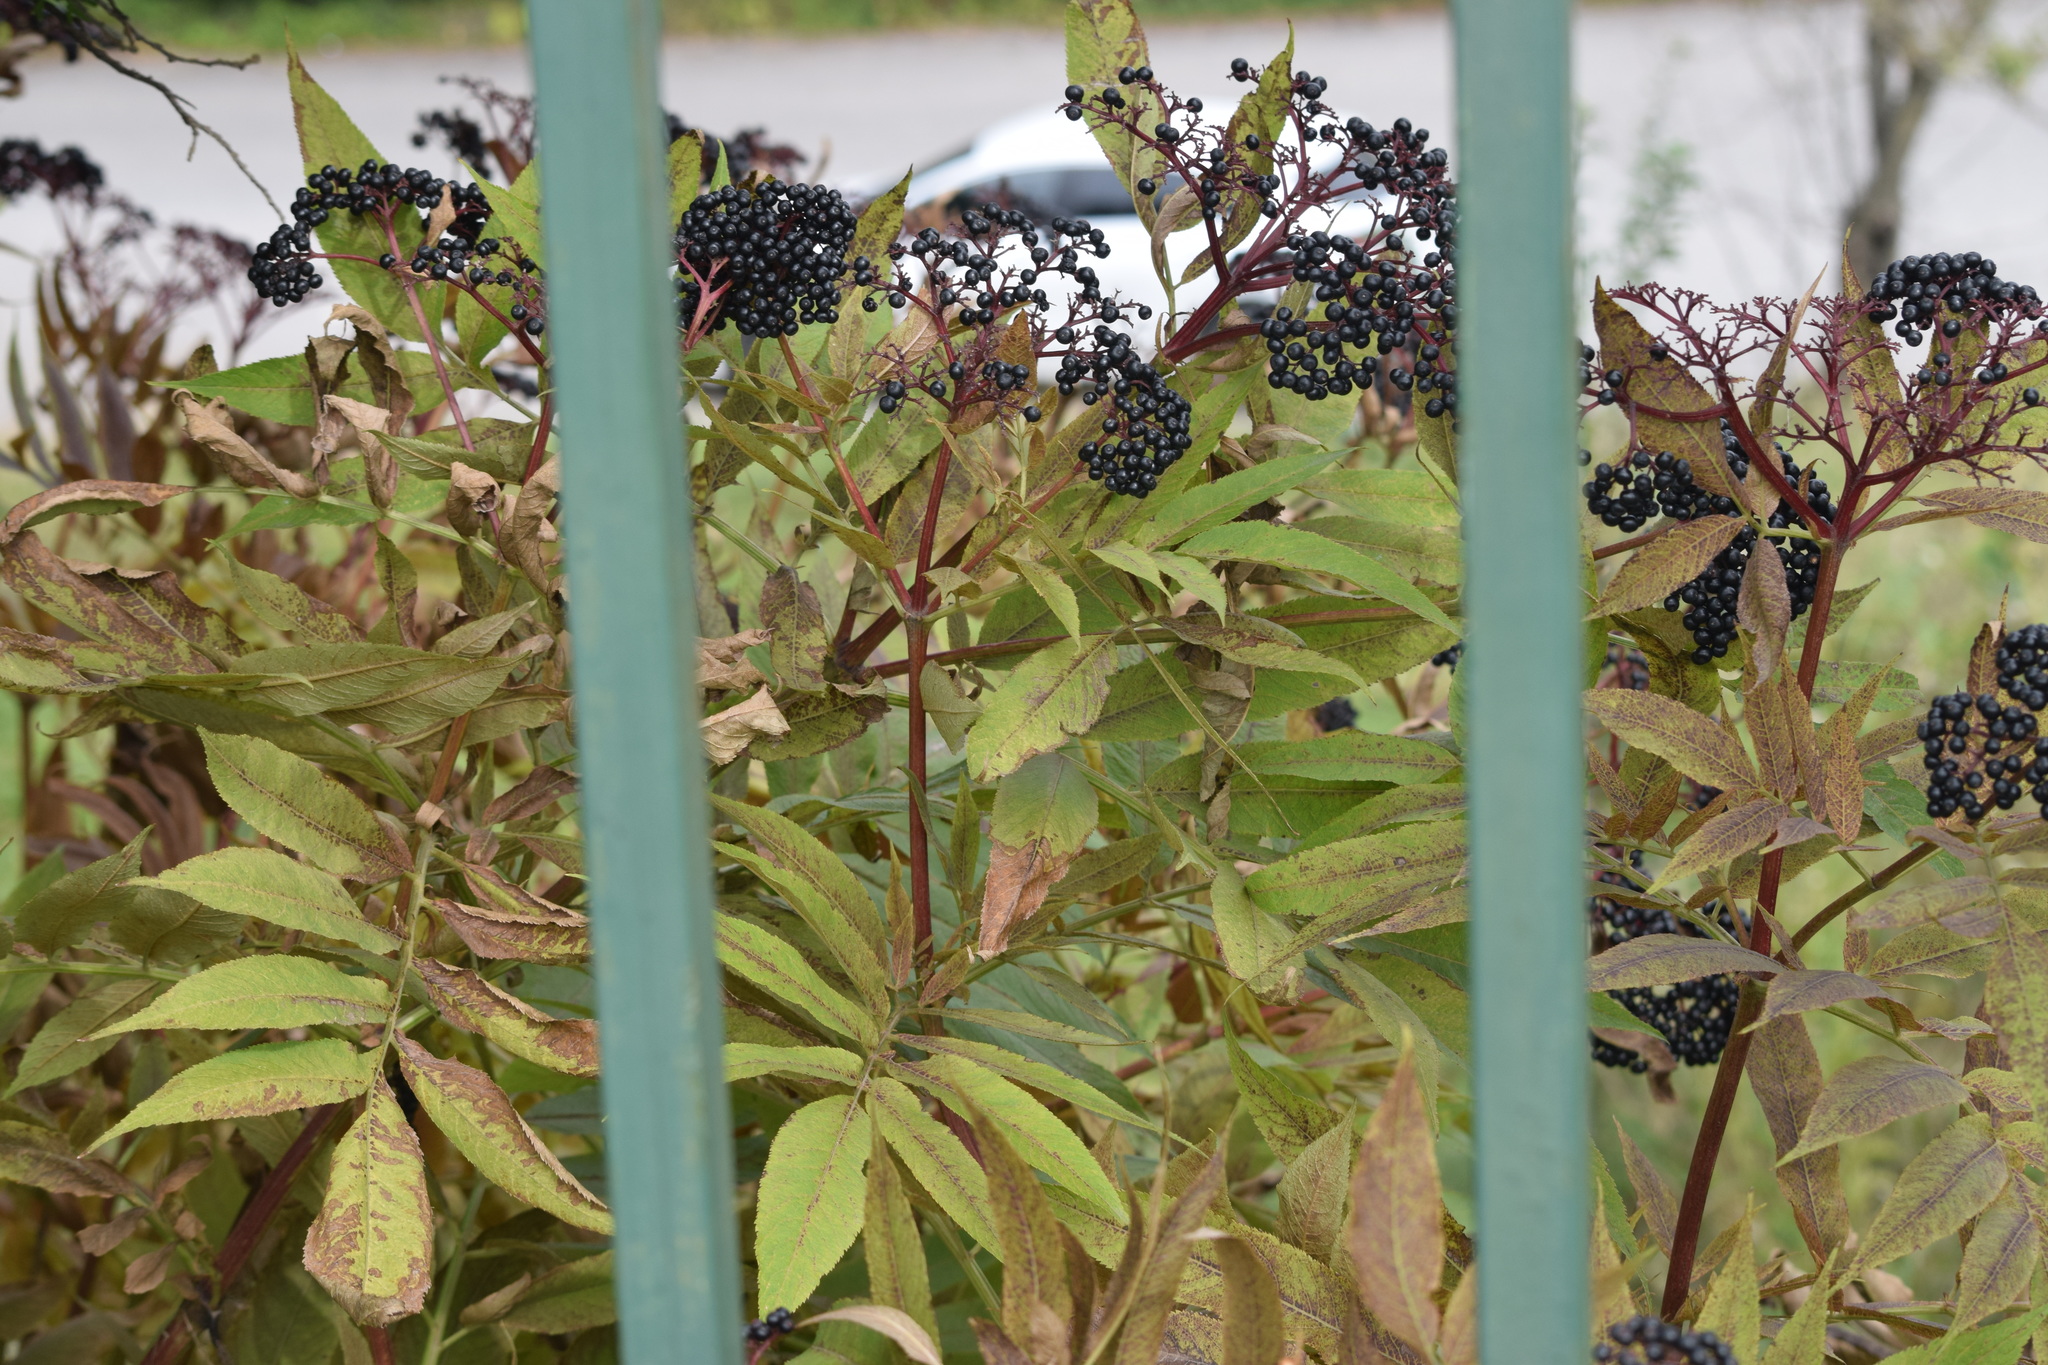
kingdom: Plantae
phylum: Tracheophyta
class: Magnoliopsida
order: Dipsacales
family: Viburnaceae
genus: Sambucus
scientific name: Sambucus ebulus
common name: Dwarf elder
